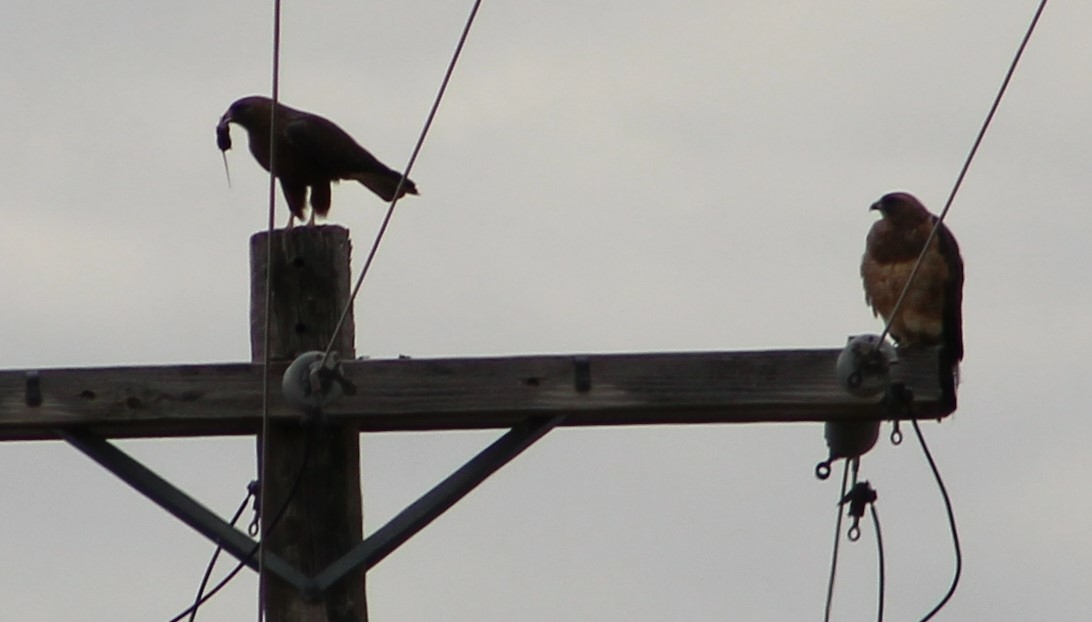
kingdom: Animalia
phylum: Chordata
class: Aves
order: Accipitriformes
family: Accipitridae
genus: Buteo
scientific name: Buteo swainsoni
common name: Swainson's hawk
